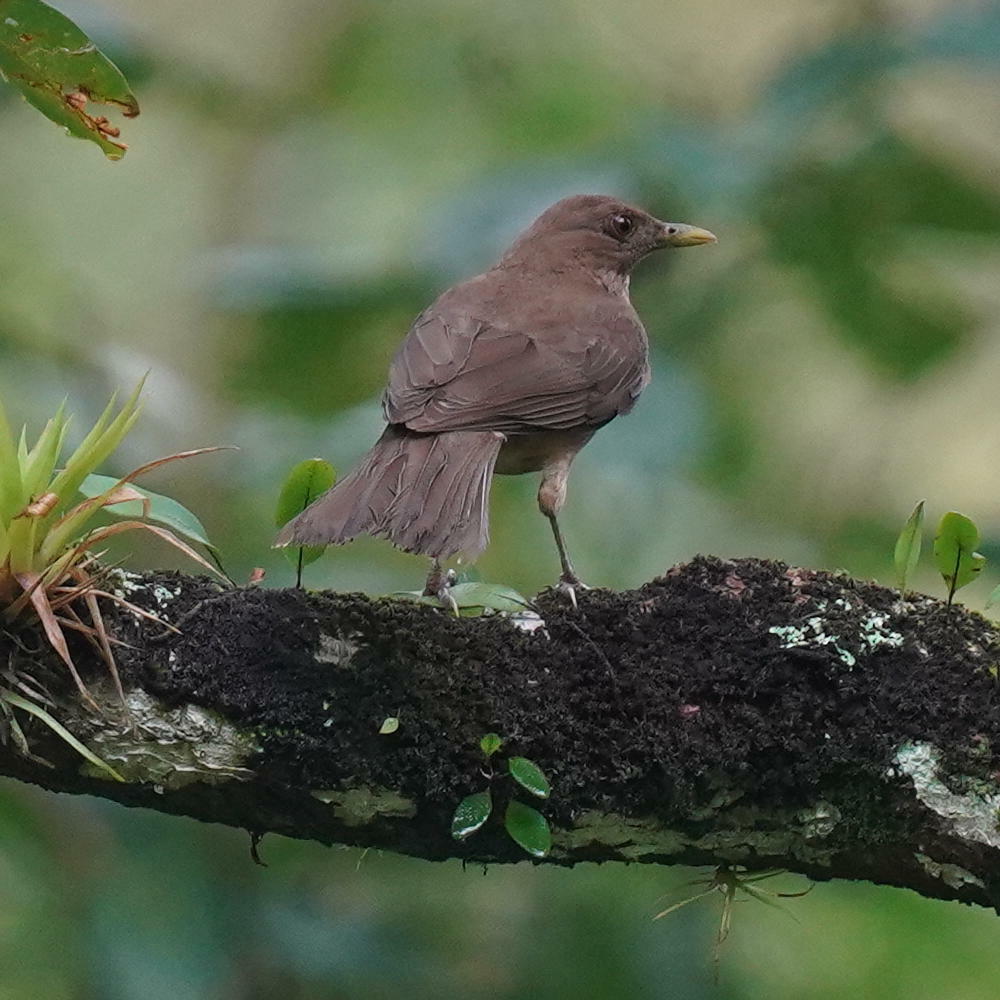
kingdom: Animalia
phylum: Chordata
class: Aves
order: Passeriformes
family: Turdidae
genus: Turdus
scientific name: Turdus grayi
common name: Clay-colored thrush
